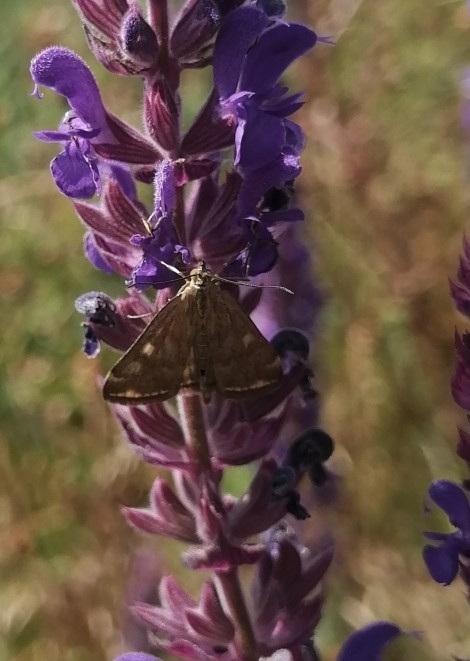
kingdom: Animalia
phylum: Arthropoda
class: Insecta
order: Lepidoptera
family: Crambidae
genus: Loxostege
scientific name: Loxostege sticticalis
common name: Crambid moth
